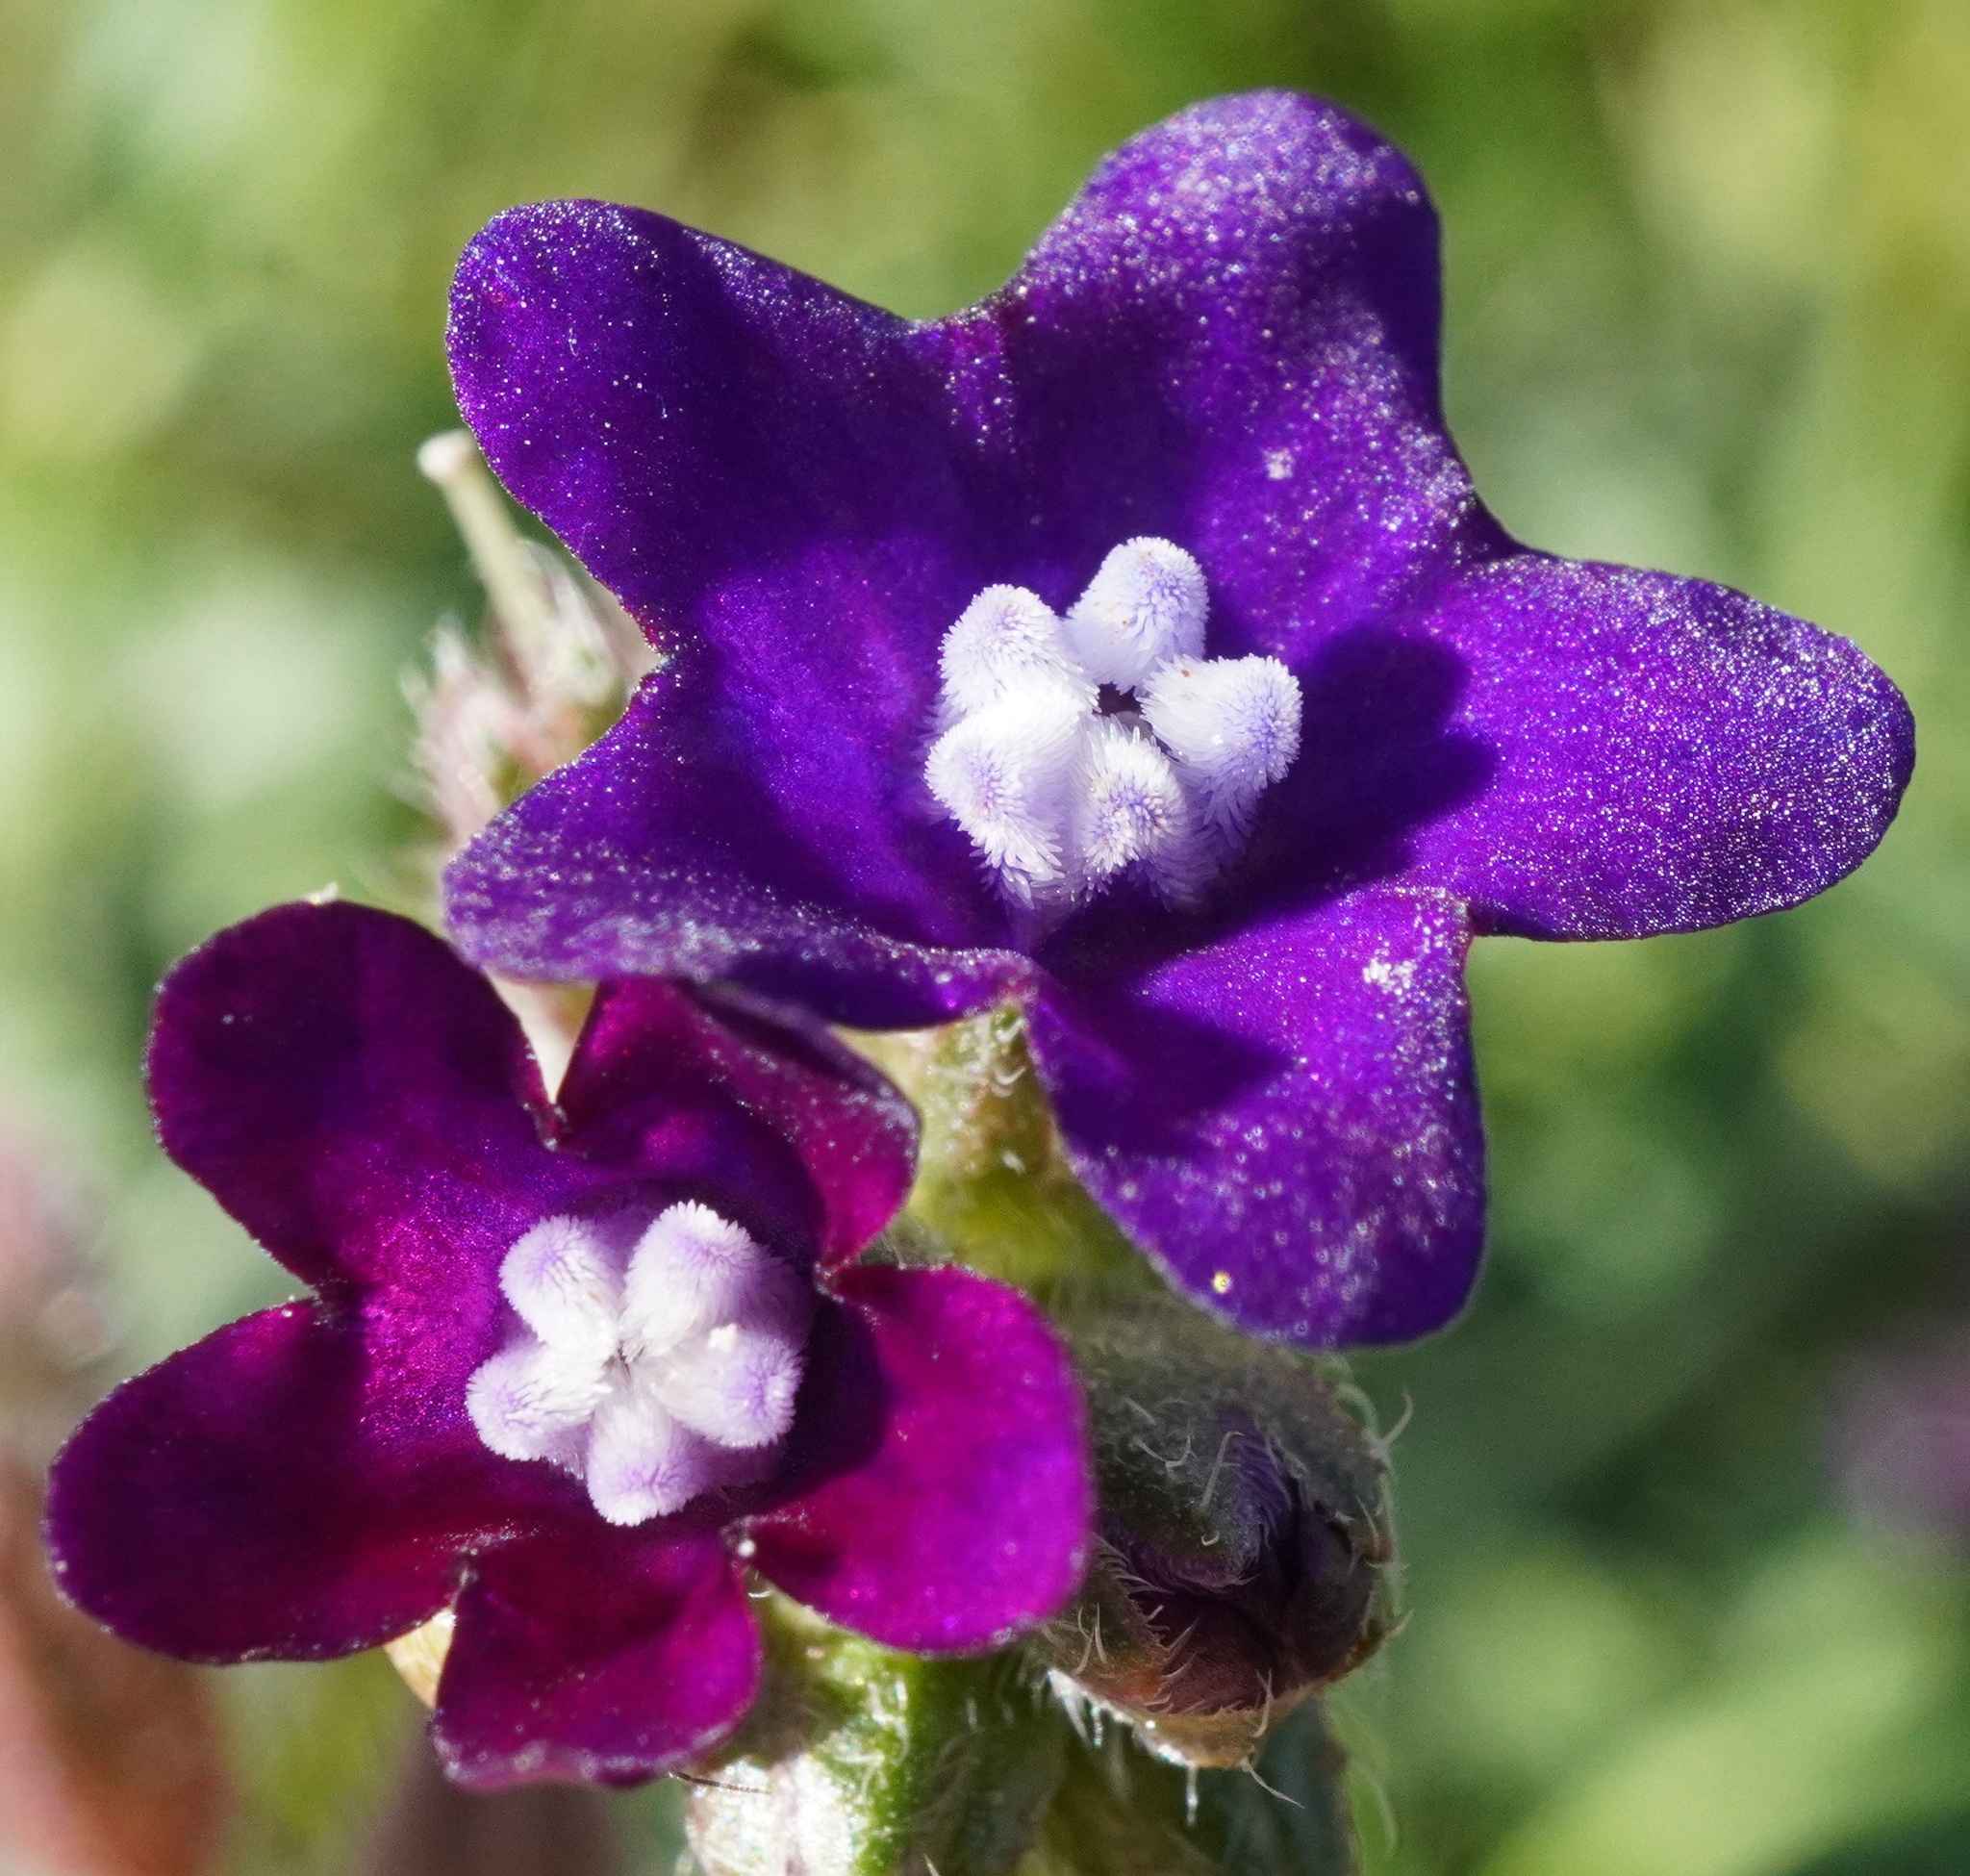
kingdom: Plantae
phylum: Tracheophyta
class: Magnoliopsida
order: Boraginales
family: Boraginaceae
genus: Anchusa
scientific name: Anchusa officinalis
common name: Alkanet
